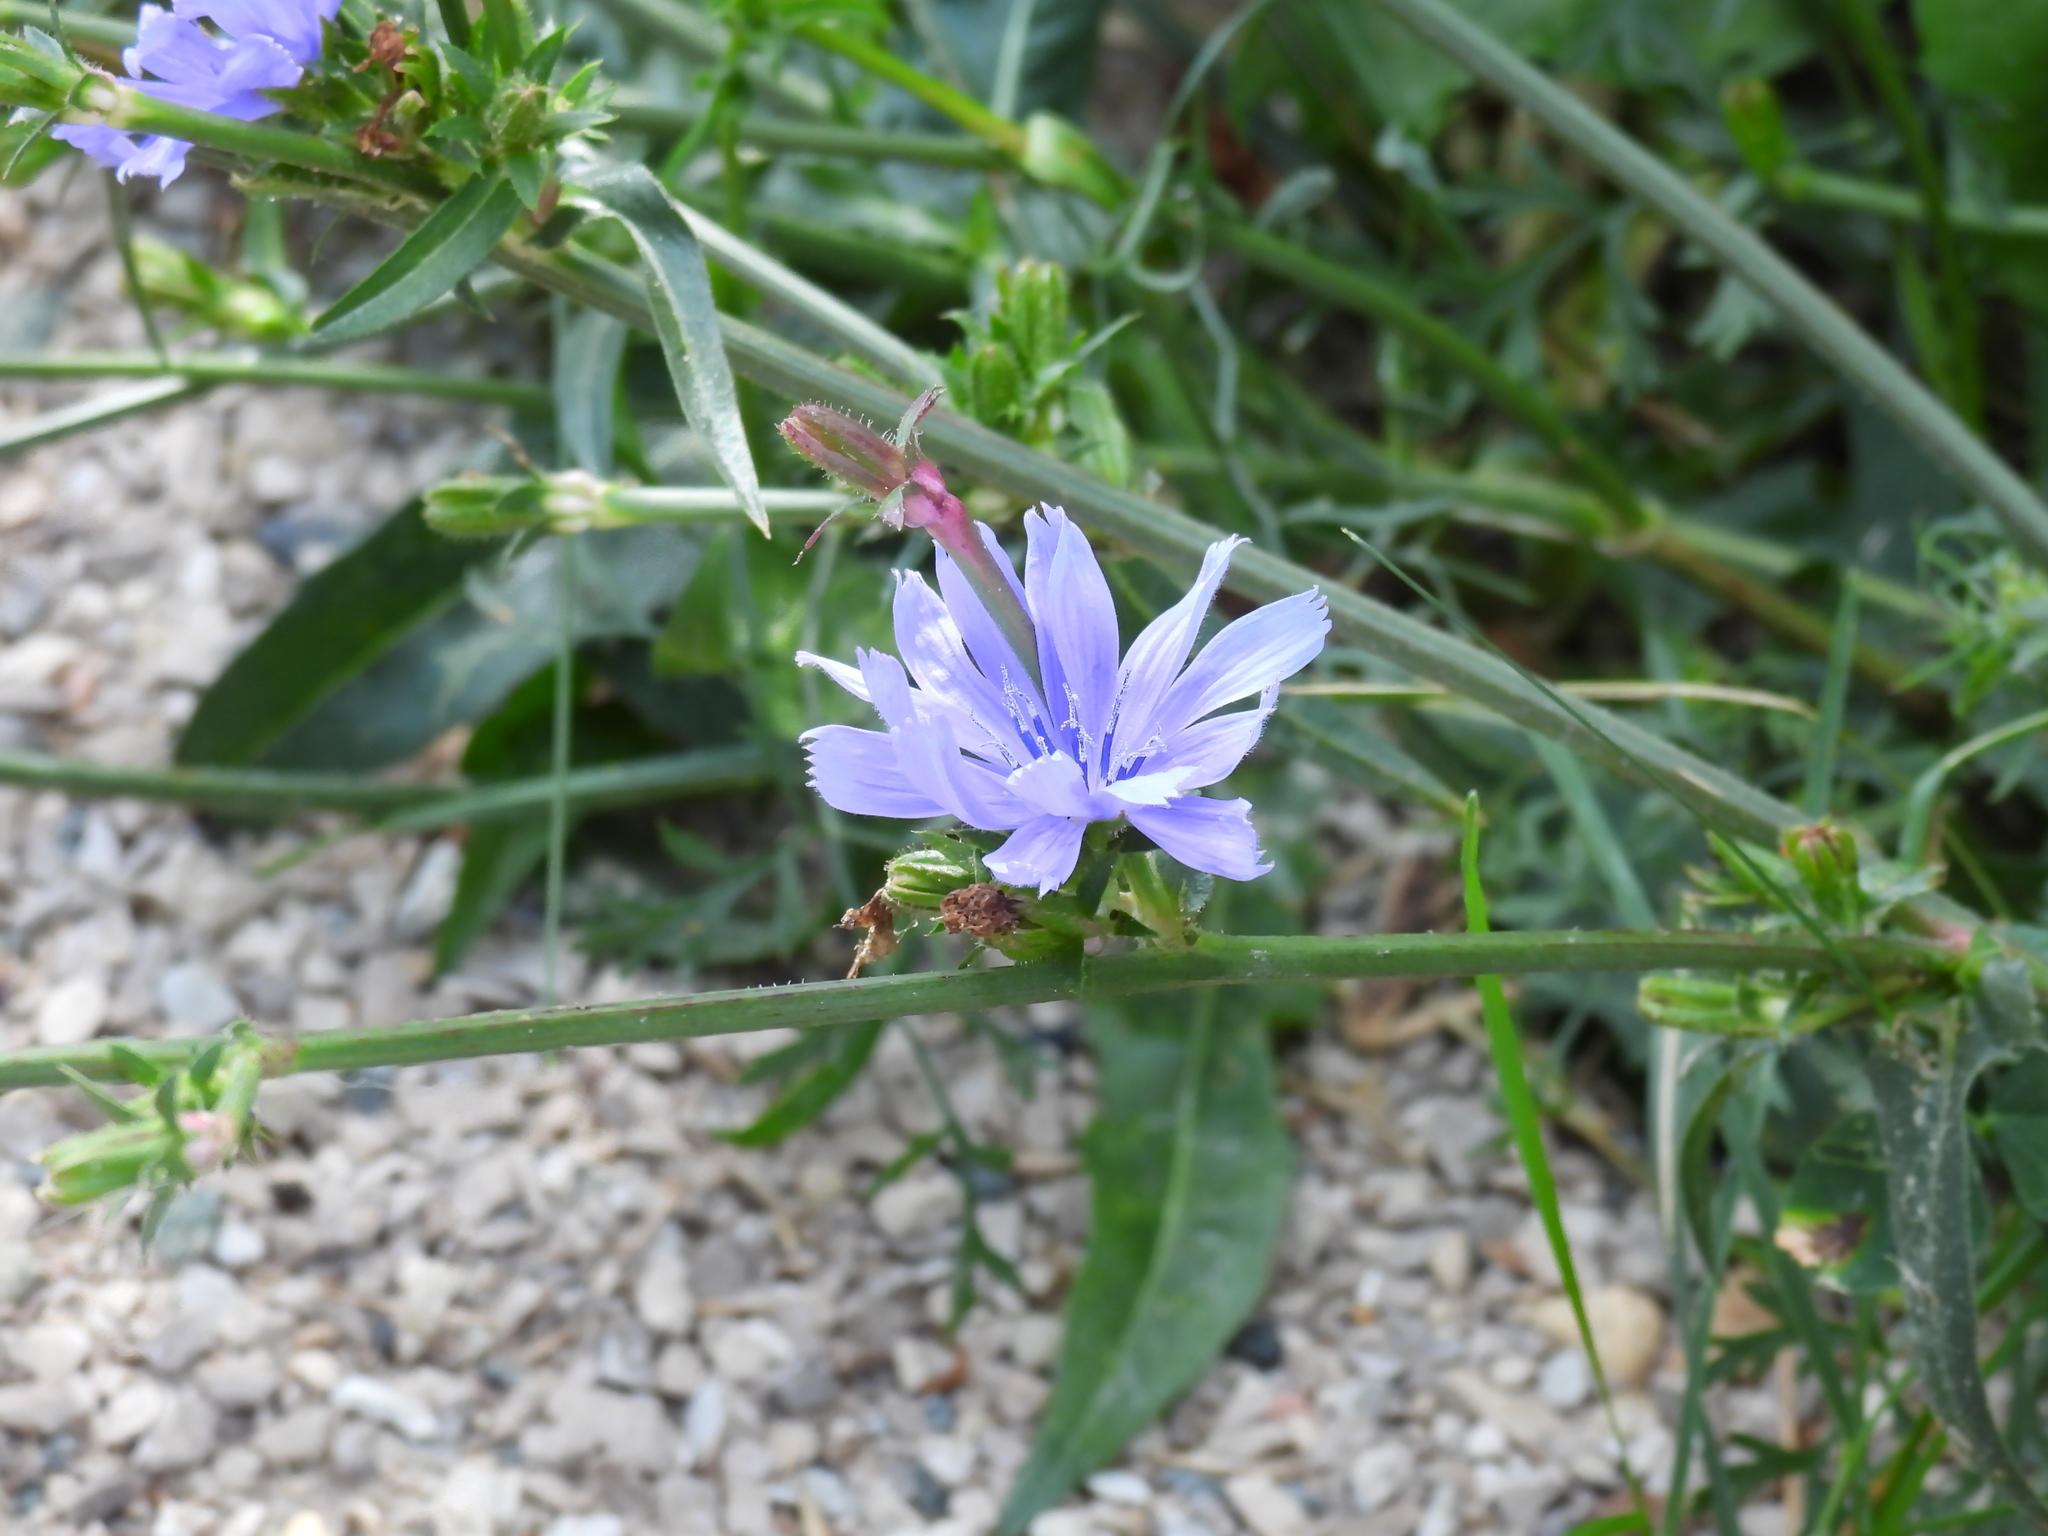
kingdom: Plantae
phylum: Tracheophyta
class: Magnoliopsida
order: Asterales
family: Asteraceae
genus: Cichorium
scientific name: Cichorium intybus
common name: Chicory
